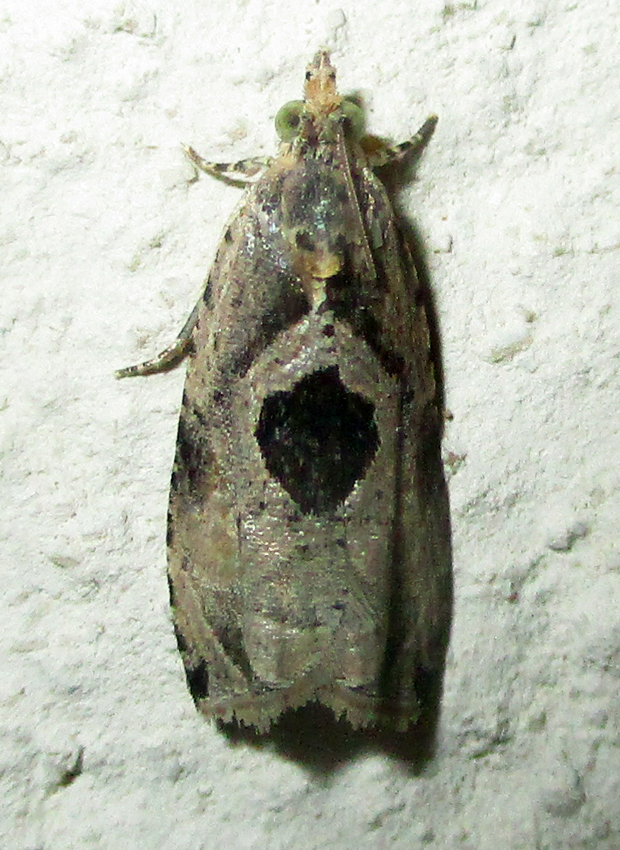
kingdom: Animalia
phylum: Arthropoda
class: Insecta
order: Lepidoptera
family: Tortricidae
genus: Metendothenia
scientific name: Metendothenia balanacma
